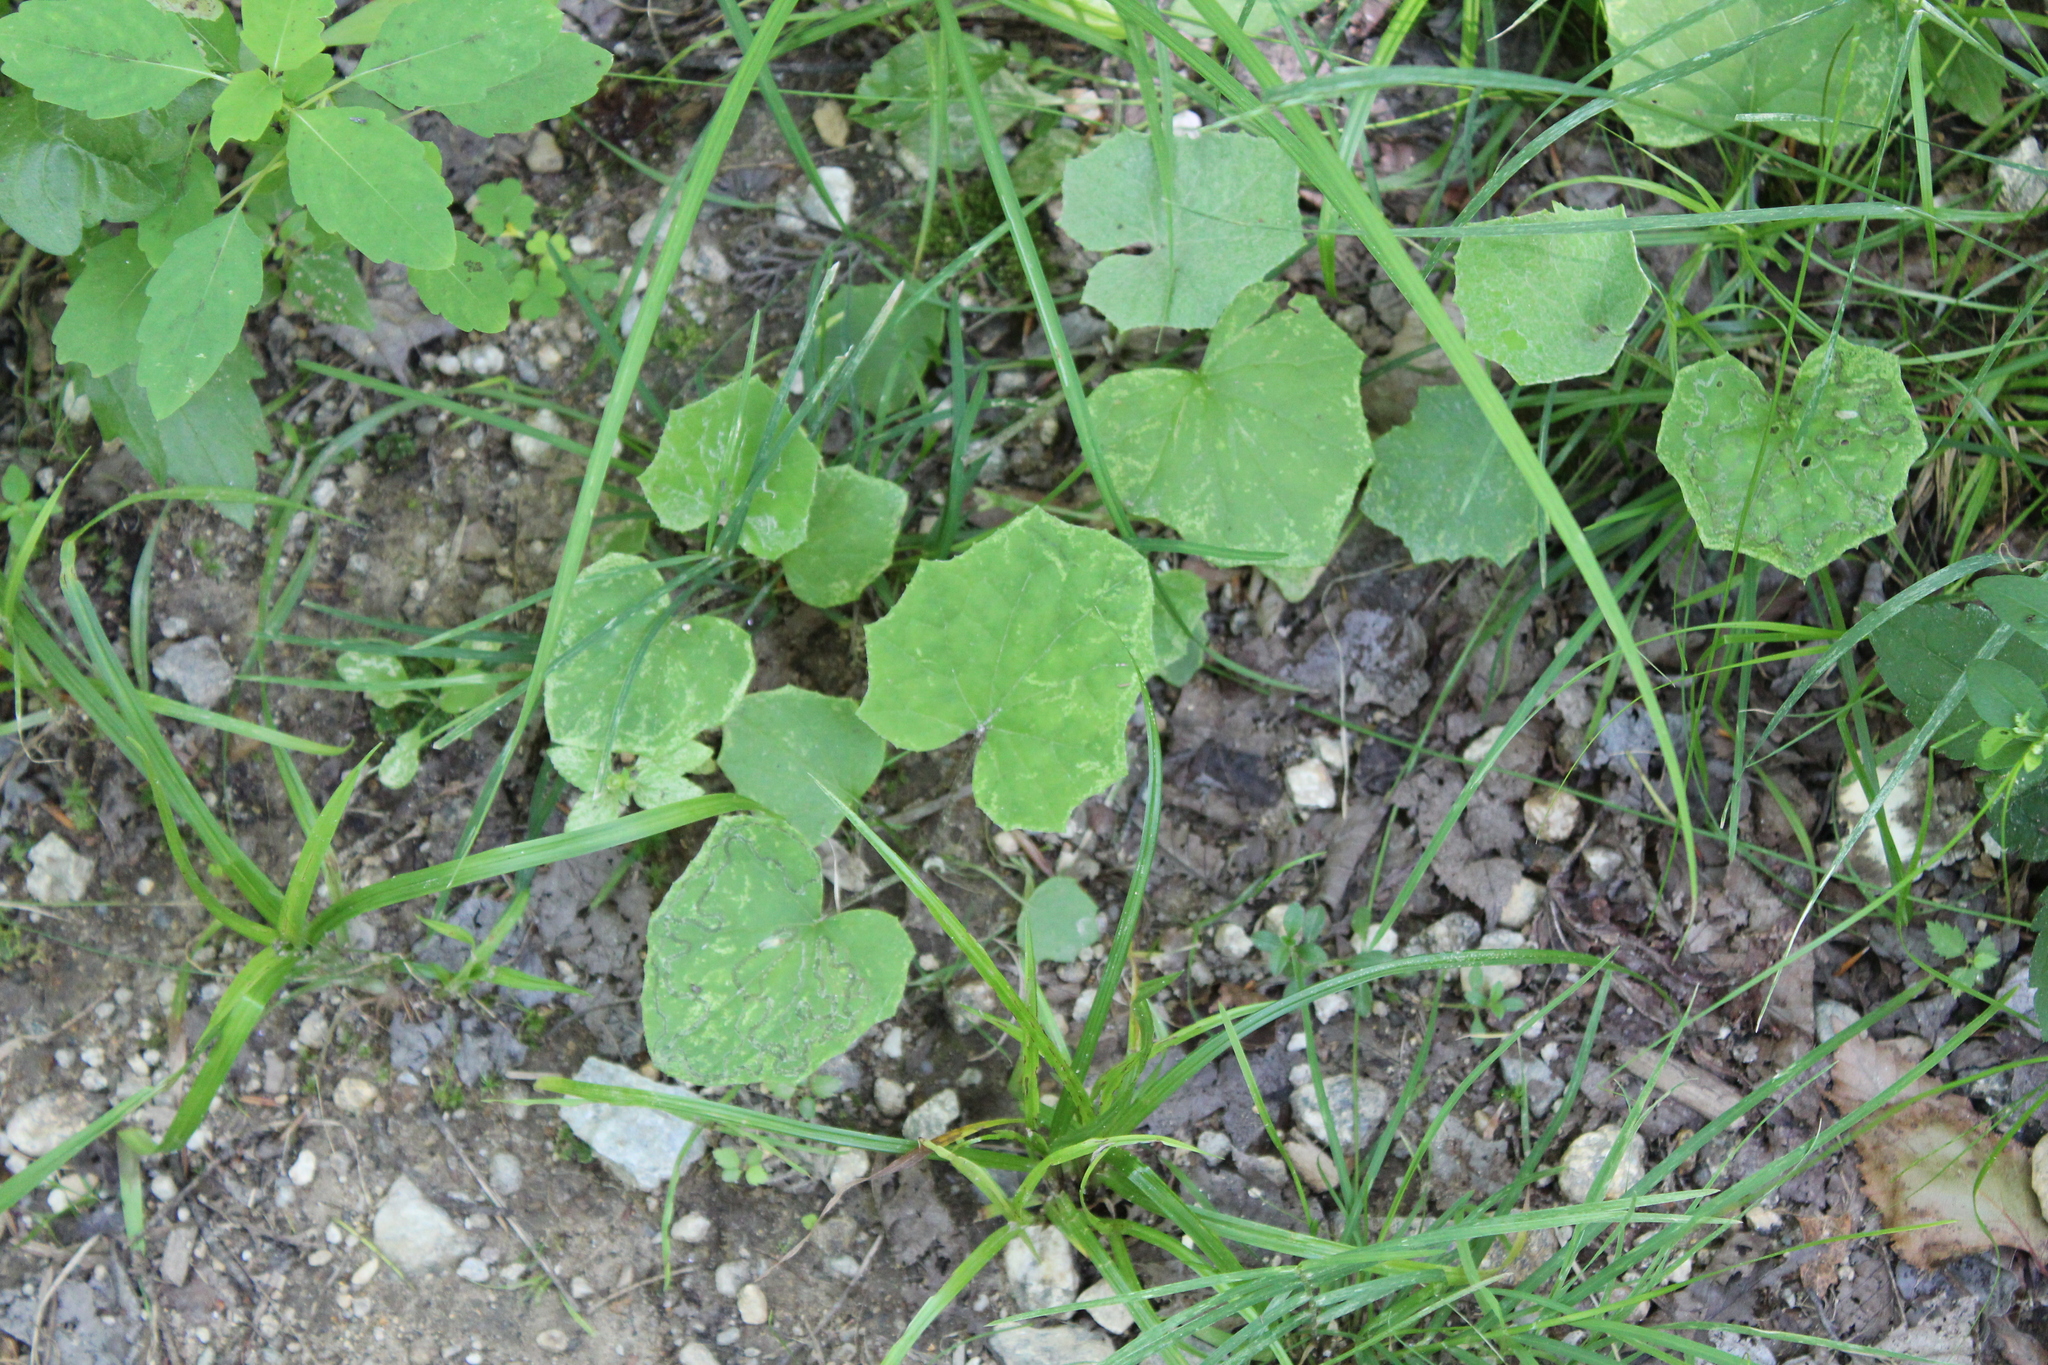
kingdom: Plantae
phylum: Tracheophyta
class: Magnoliopsida
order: Asterales
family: Asteraceae
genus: Tussilago
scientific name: Tussilago farfara
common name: Coltsfoot
